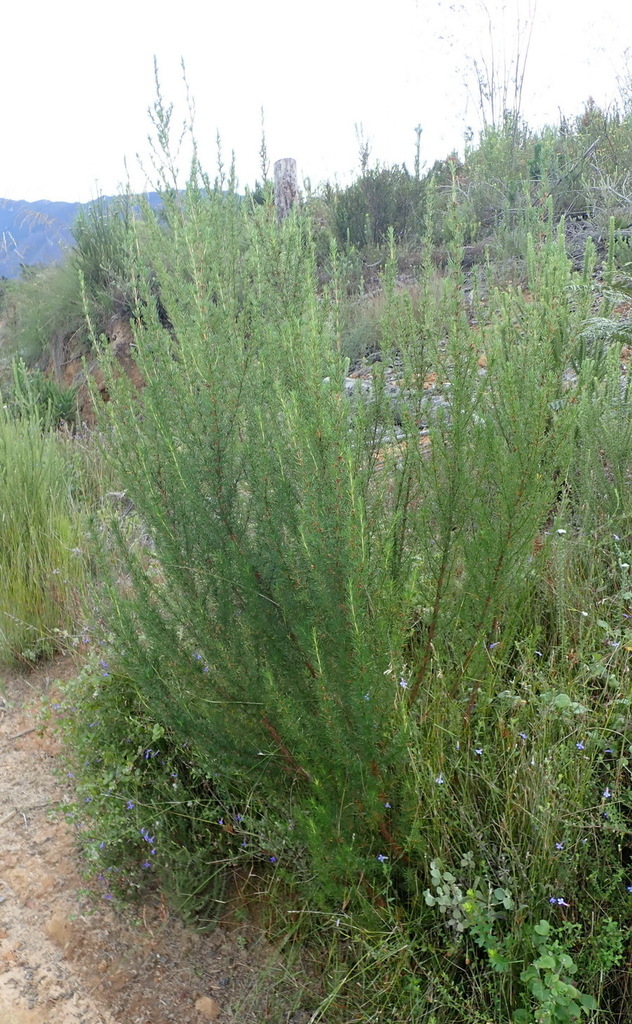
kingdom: Plantae
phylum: Tracheophyta
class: Magnoliopsida
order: Rosales
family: Rosaceae
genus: Cliffortia
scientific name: Cliffortia burchellii
